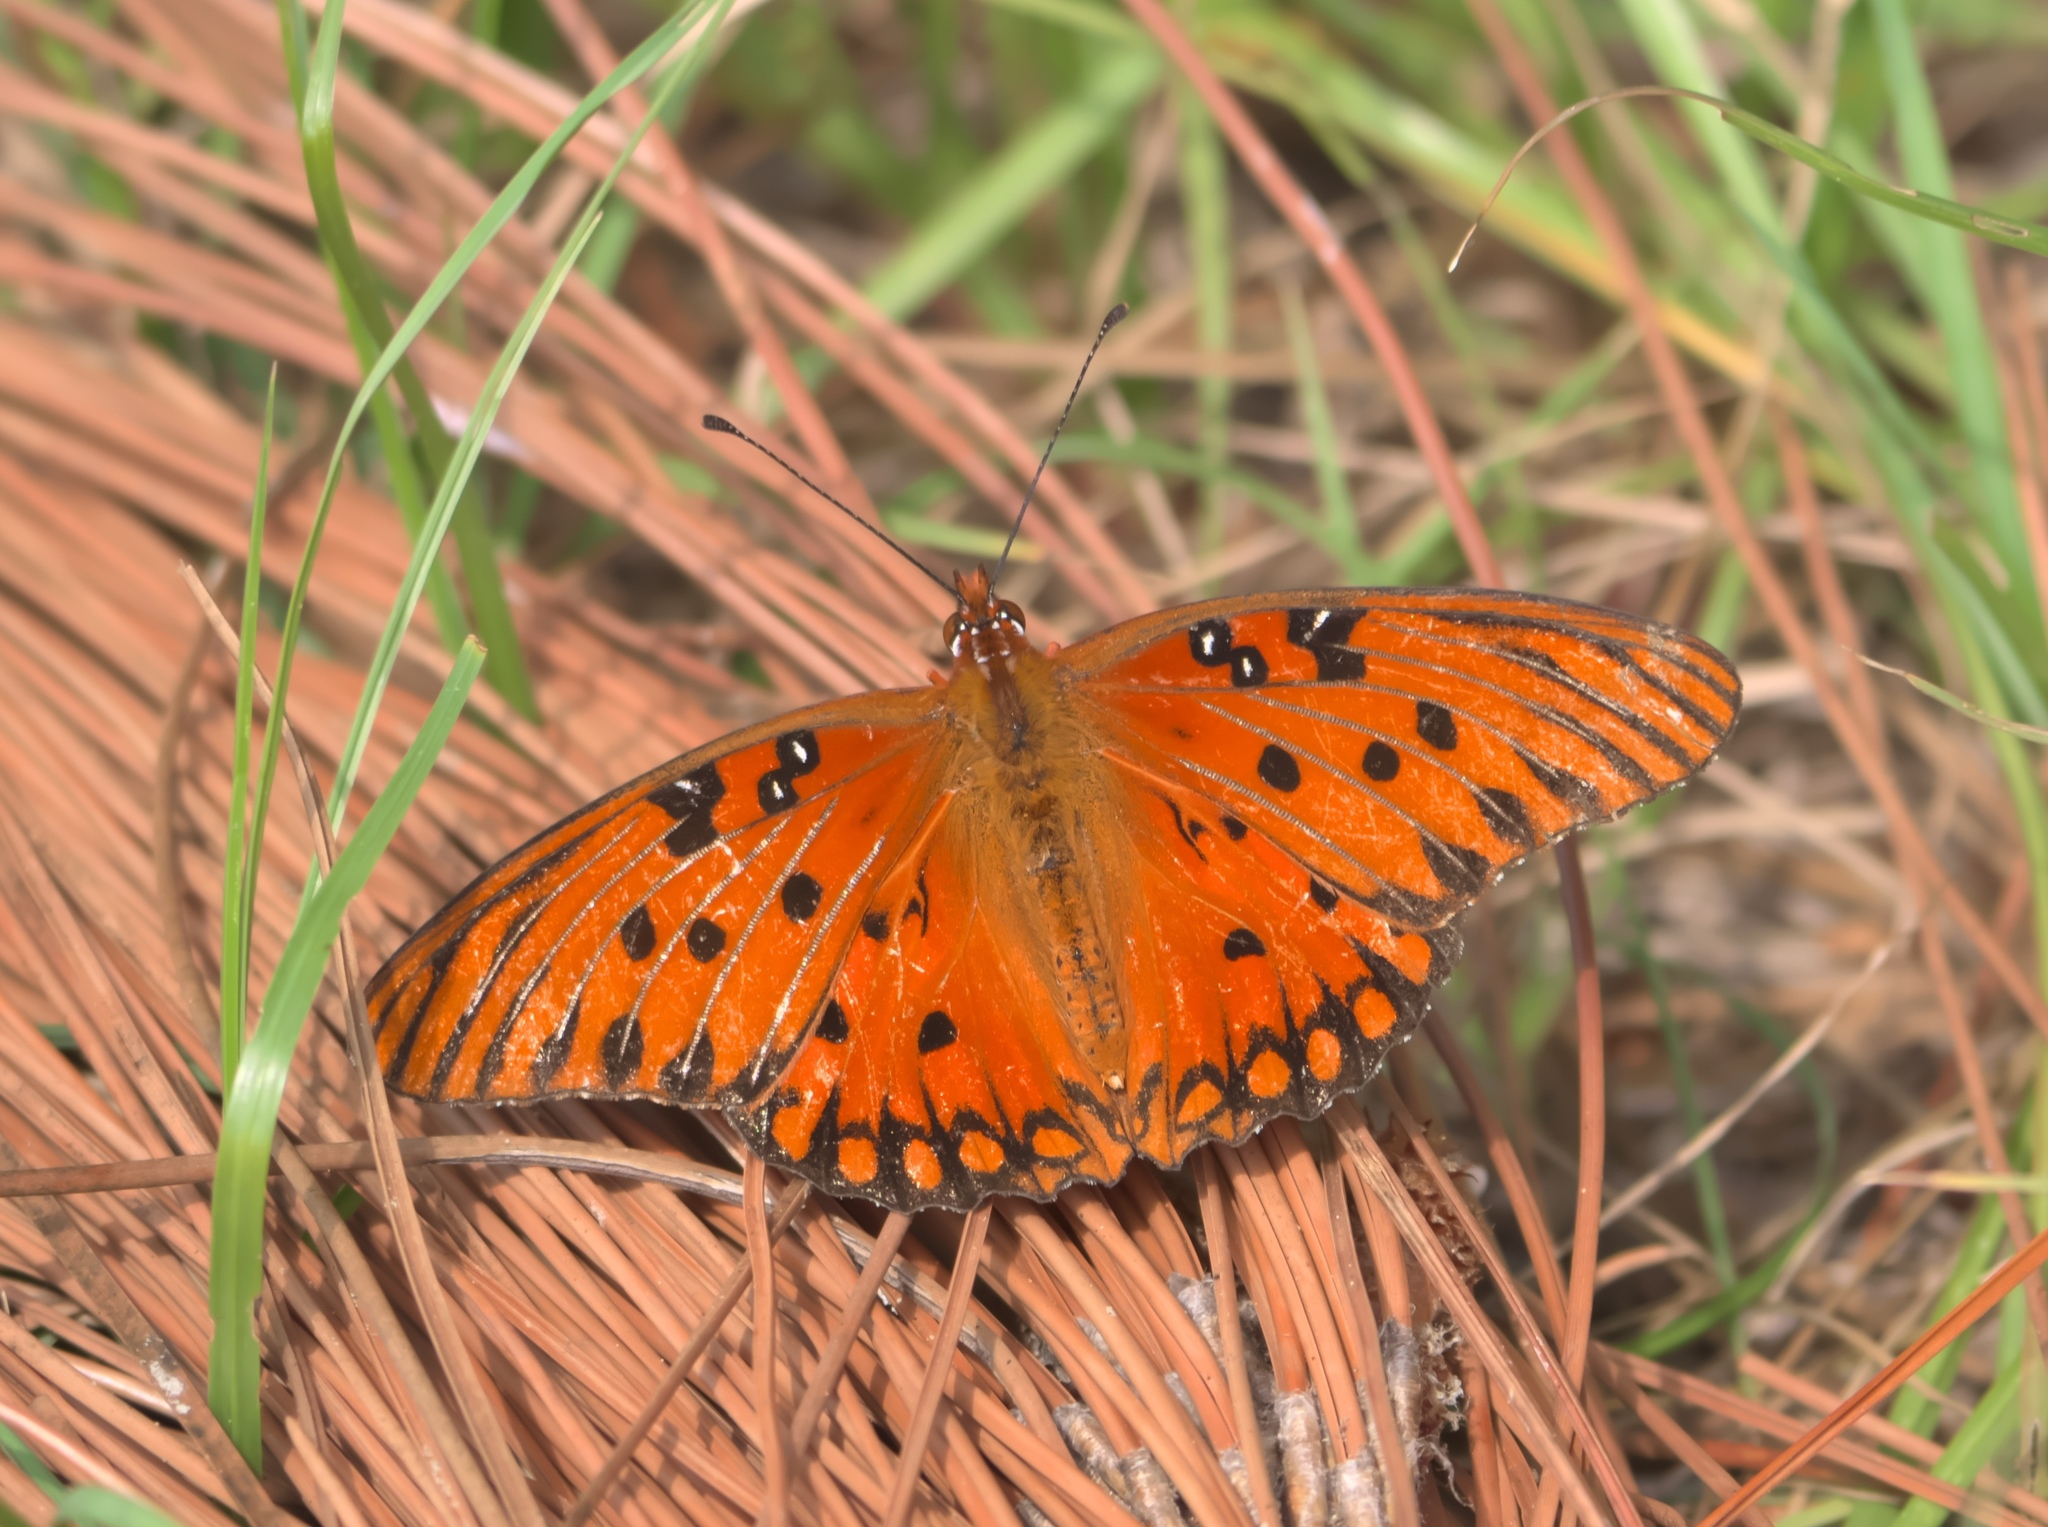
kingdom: Animalia
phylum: Arthropoda
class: Insecta
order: Lepidoptera
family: Nymphalidae
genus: Dione
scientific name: Dione vanillae
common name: Gulf fritillary
